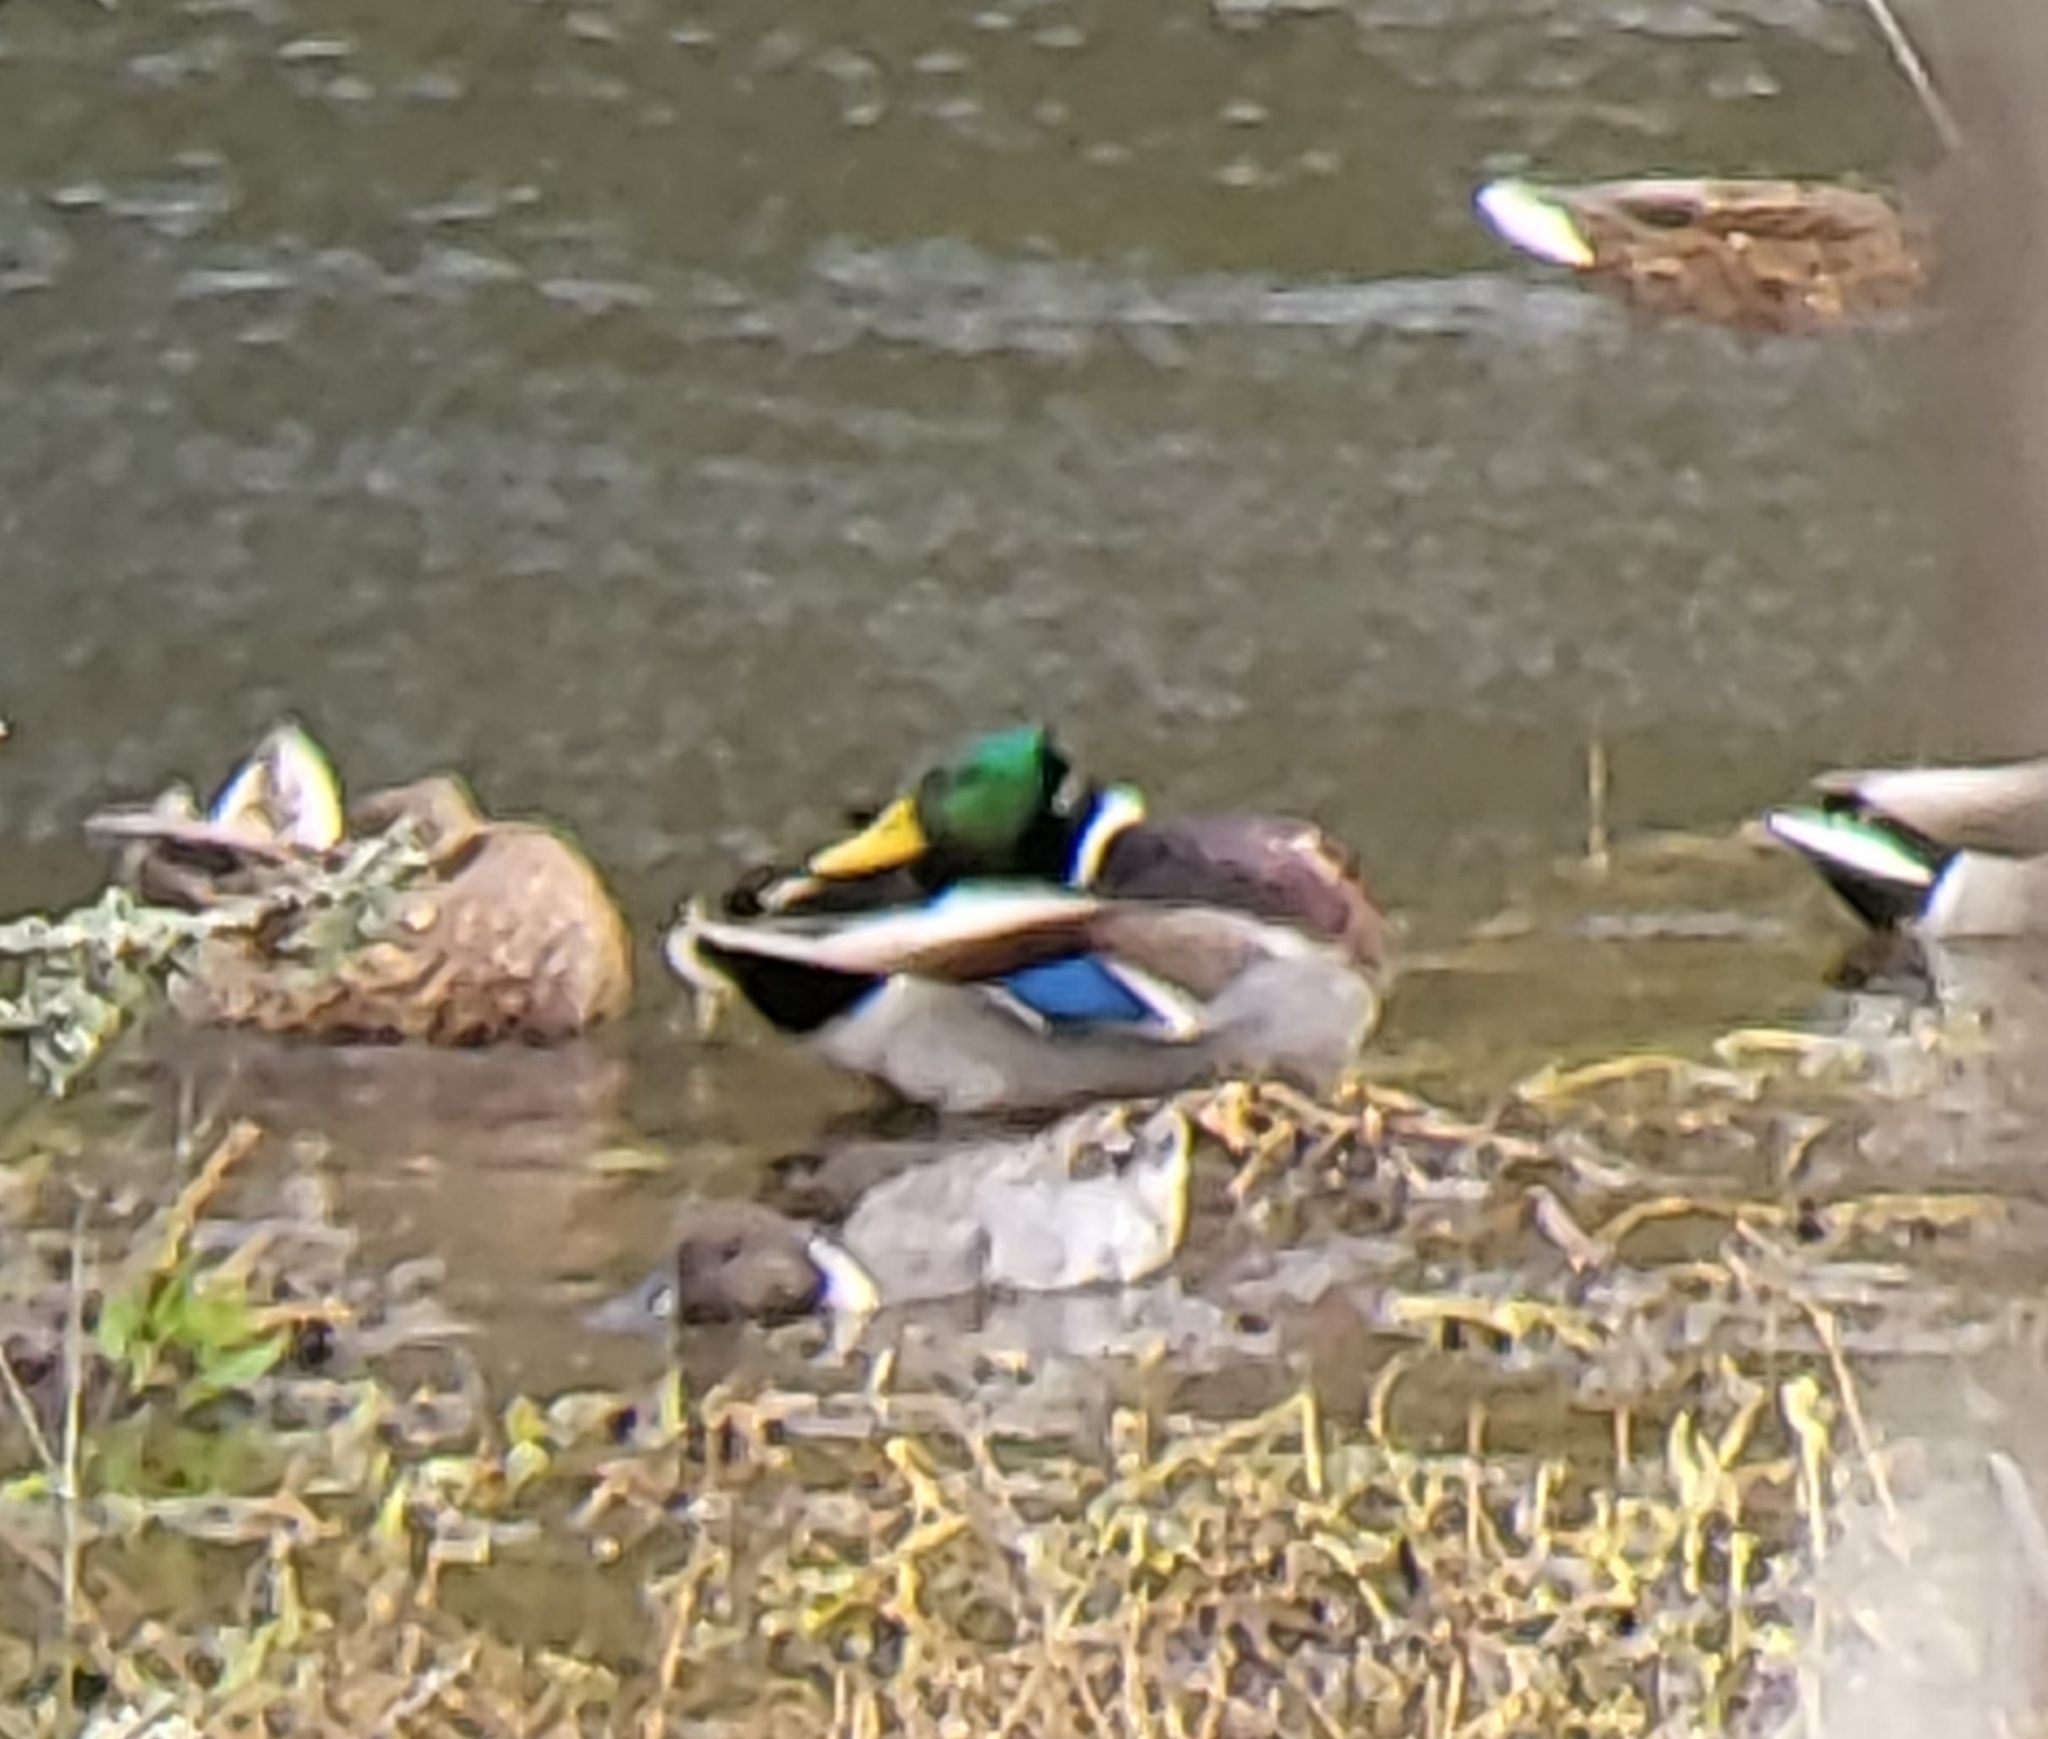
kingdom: Animalia
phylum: Chordata
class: Aves
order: Anseriformes
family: Anatidae
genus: Anas
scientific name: Anas platyrhynchos
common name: Mallard
